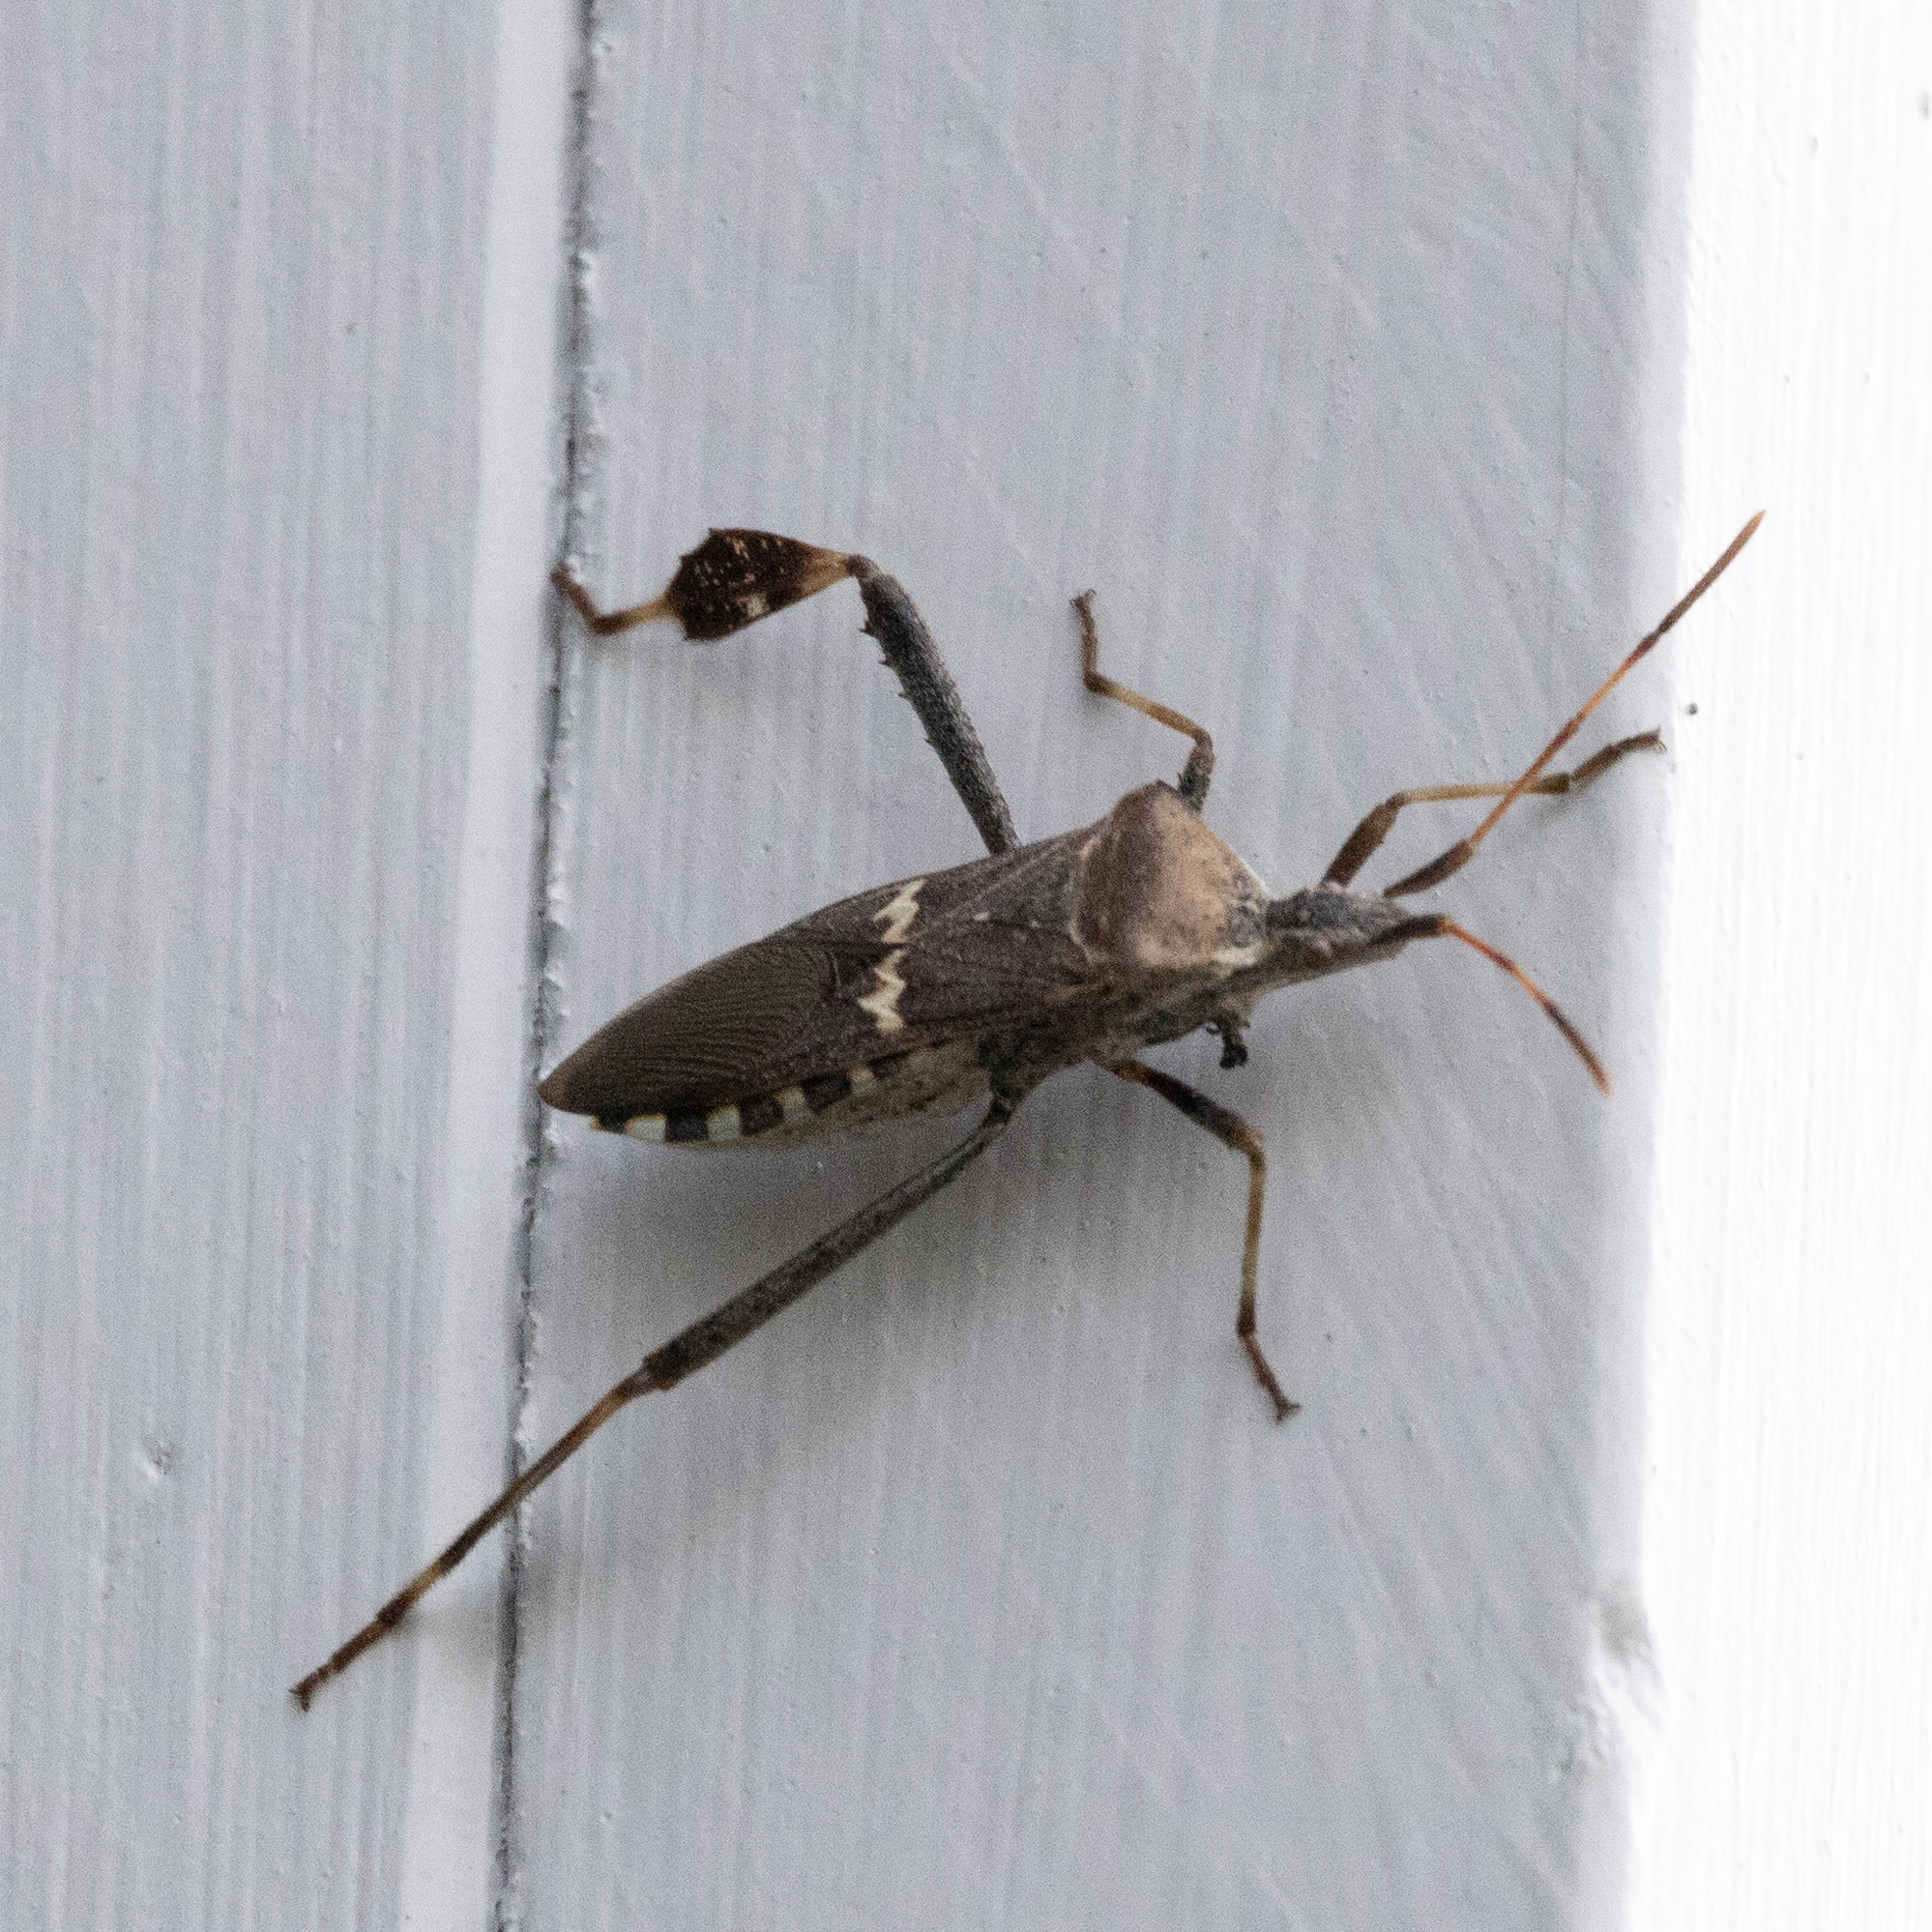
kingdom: Animalia
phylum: Arthropoda
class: Insecta
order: Hemiptera
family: Coreidae
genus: Leptoglossus
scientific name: Leptoglossus clypealis
